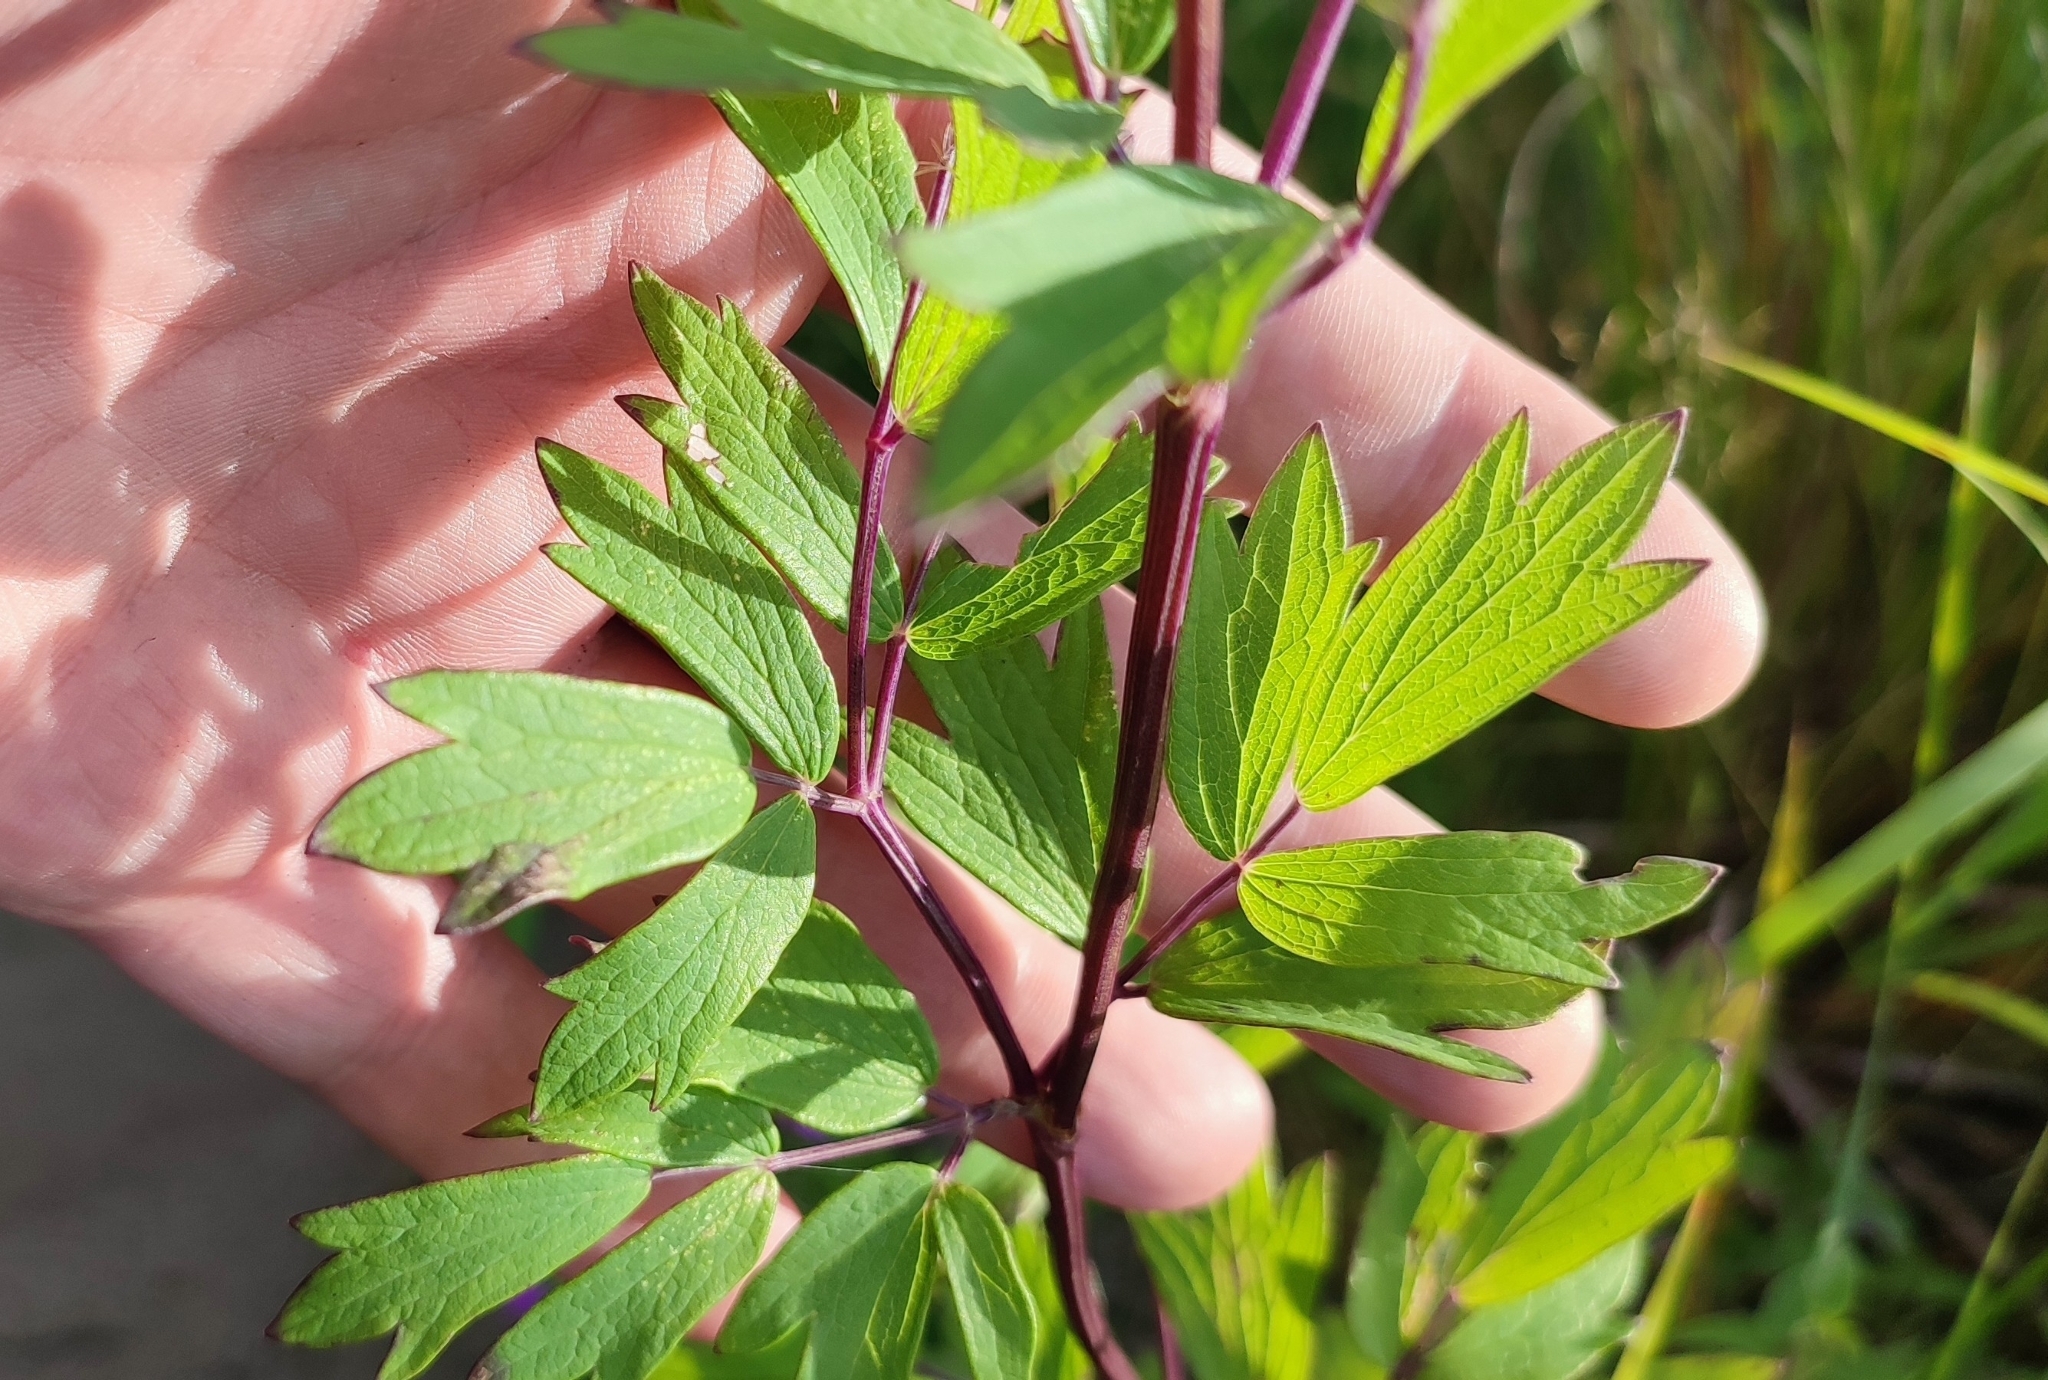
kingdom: Plantae
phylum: Tracheophyta
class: Magnoliopsida
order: Ranunculales
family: Ranunculaceae
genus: Thalictrum
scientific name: Thalictrum simplex
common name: Small meadow-rue
